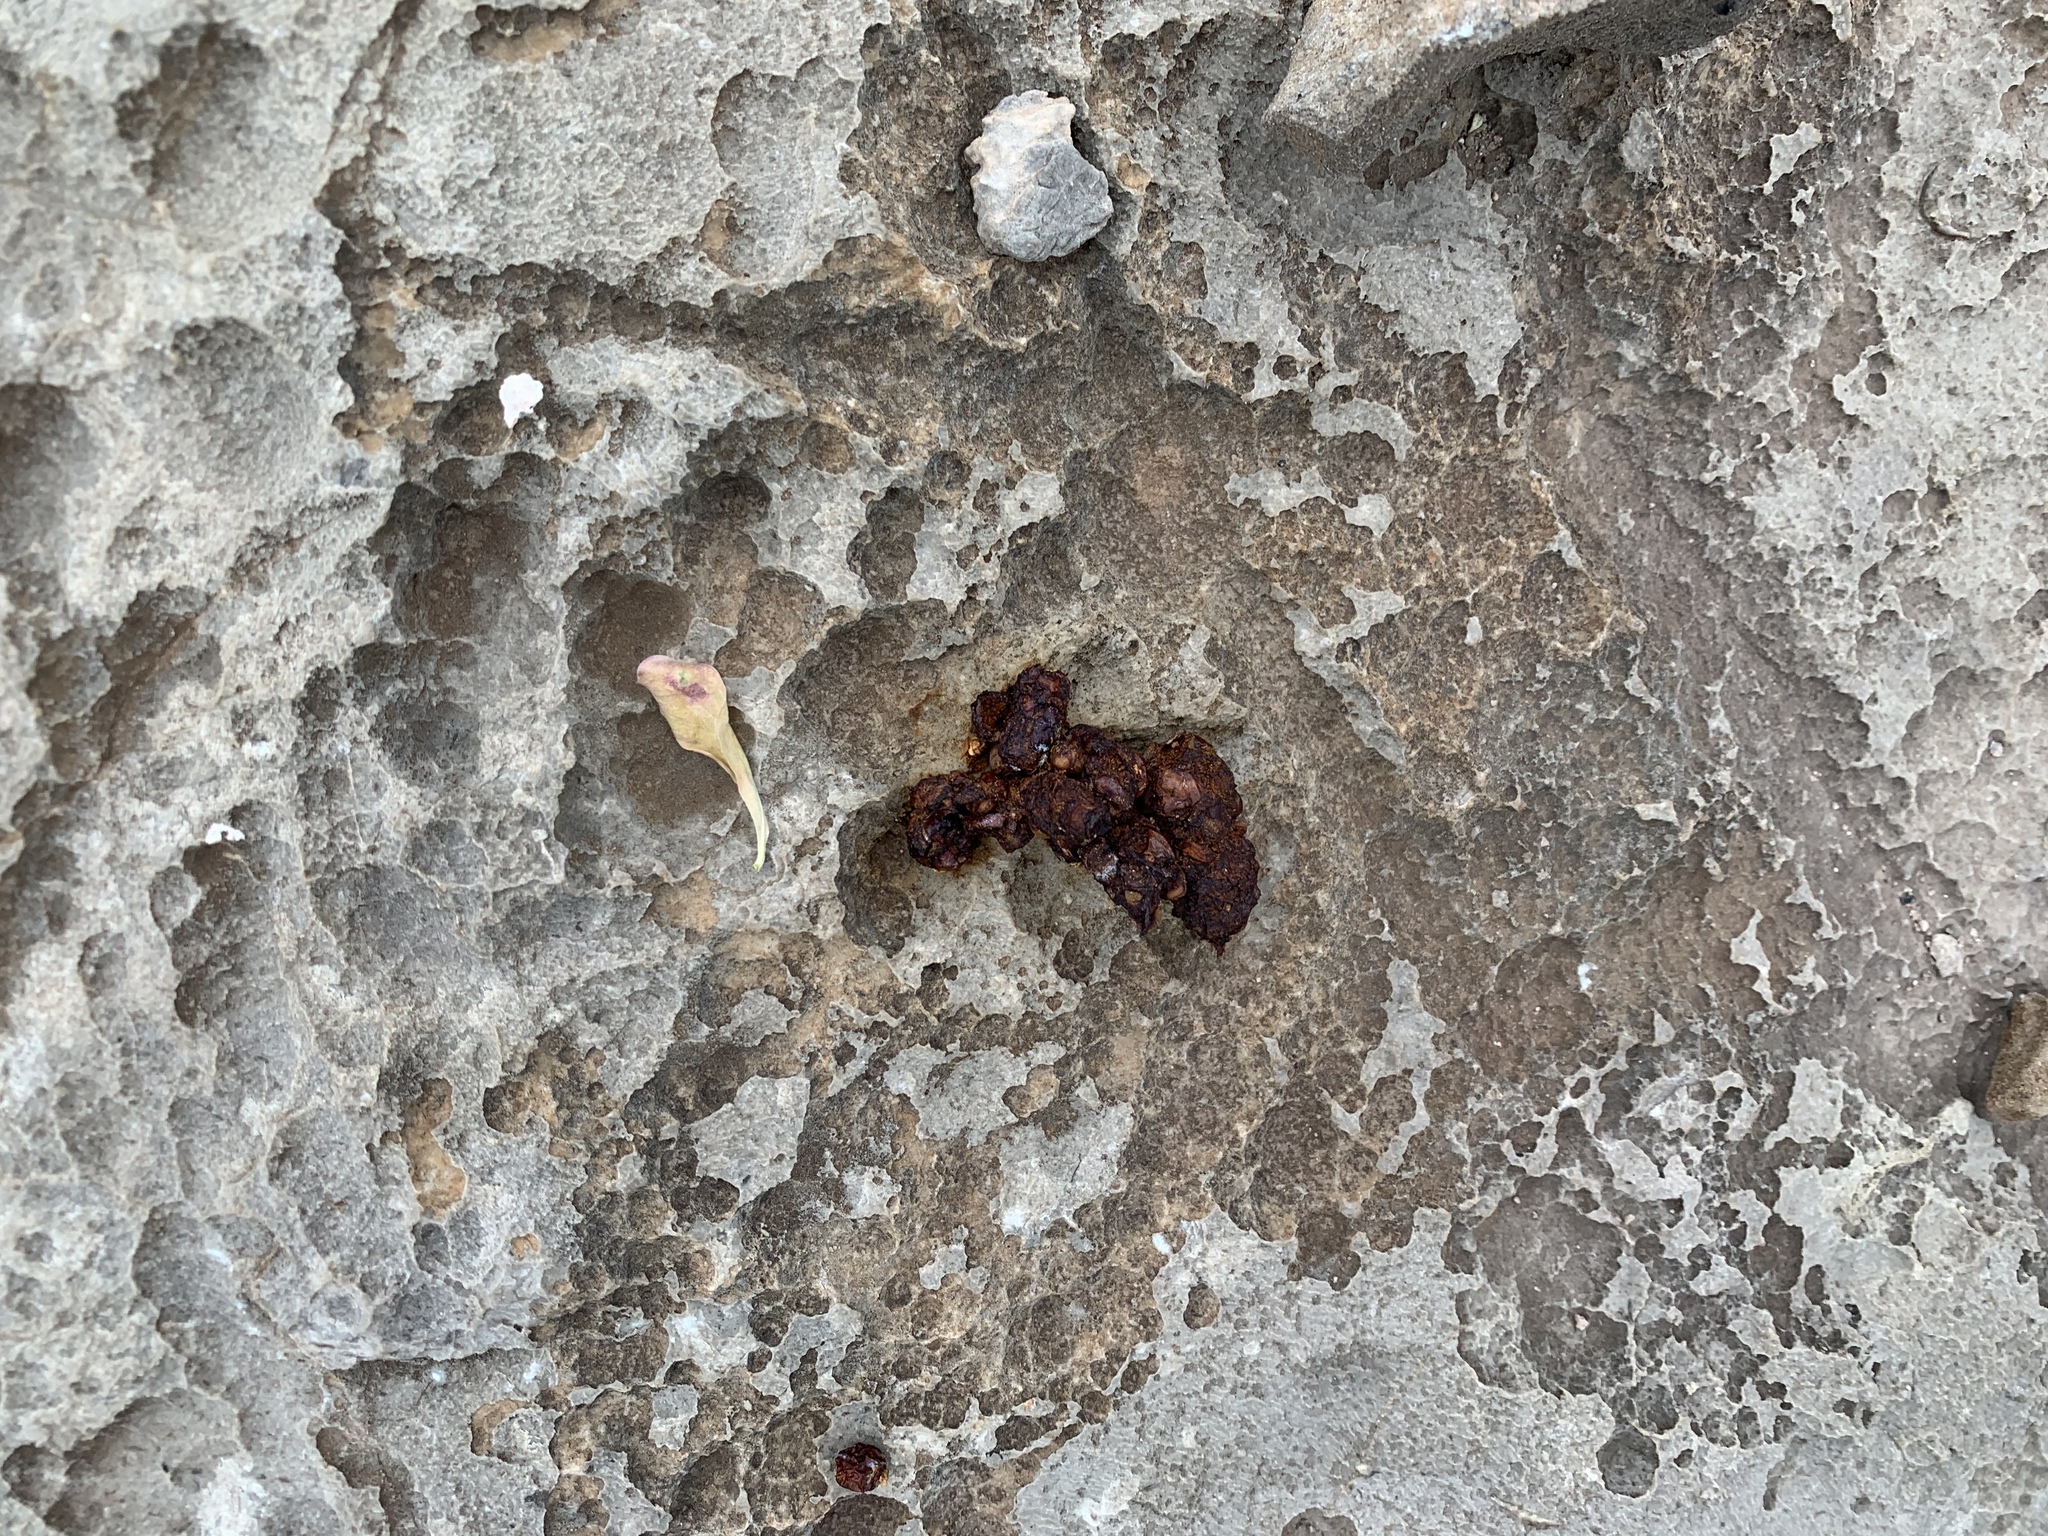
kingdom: Animalia
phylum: Chordata
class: Mammalia
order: Carnivora
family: Procyonidae
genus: Bassariscus
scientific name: Bassariscus astutus
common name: Ringtail
